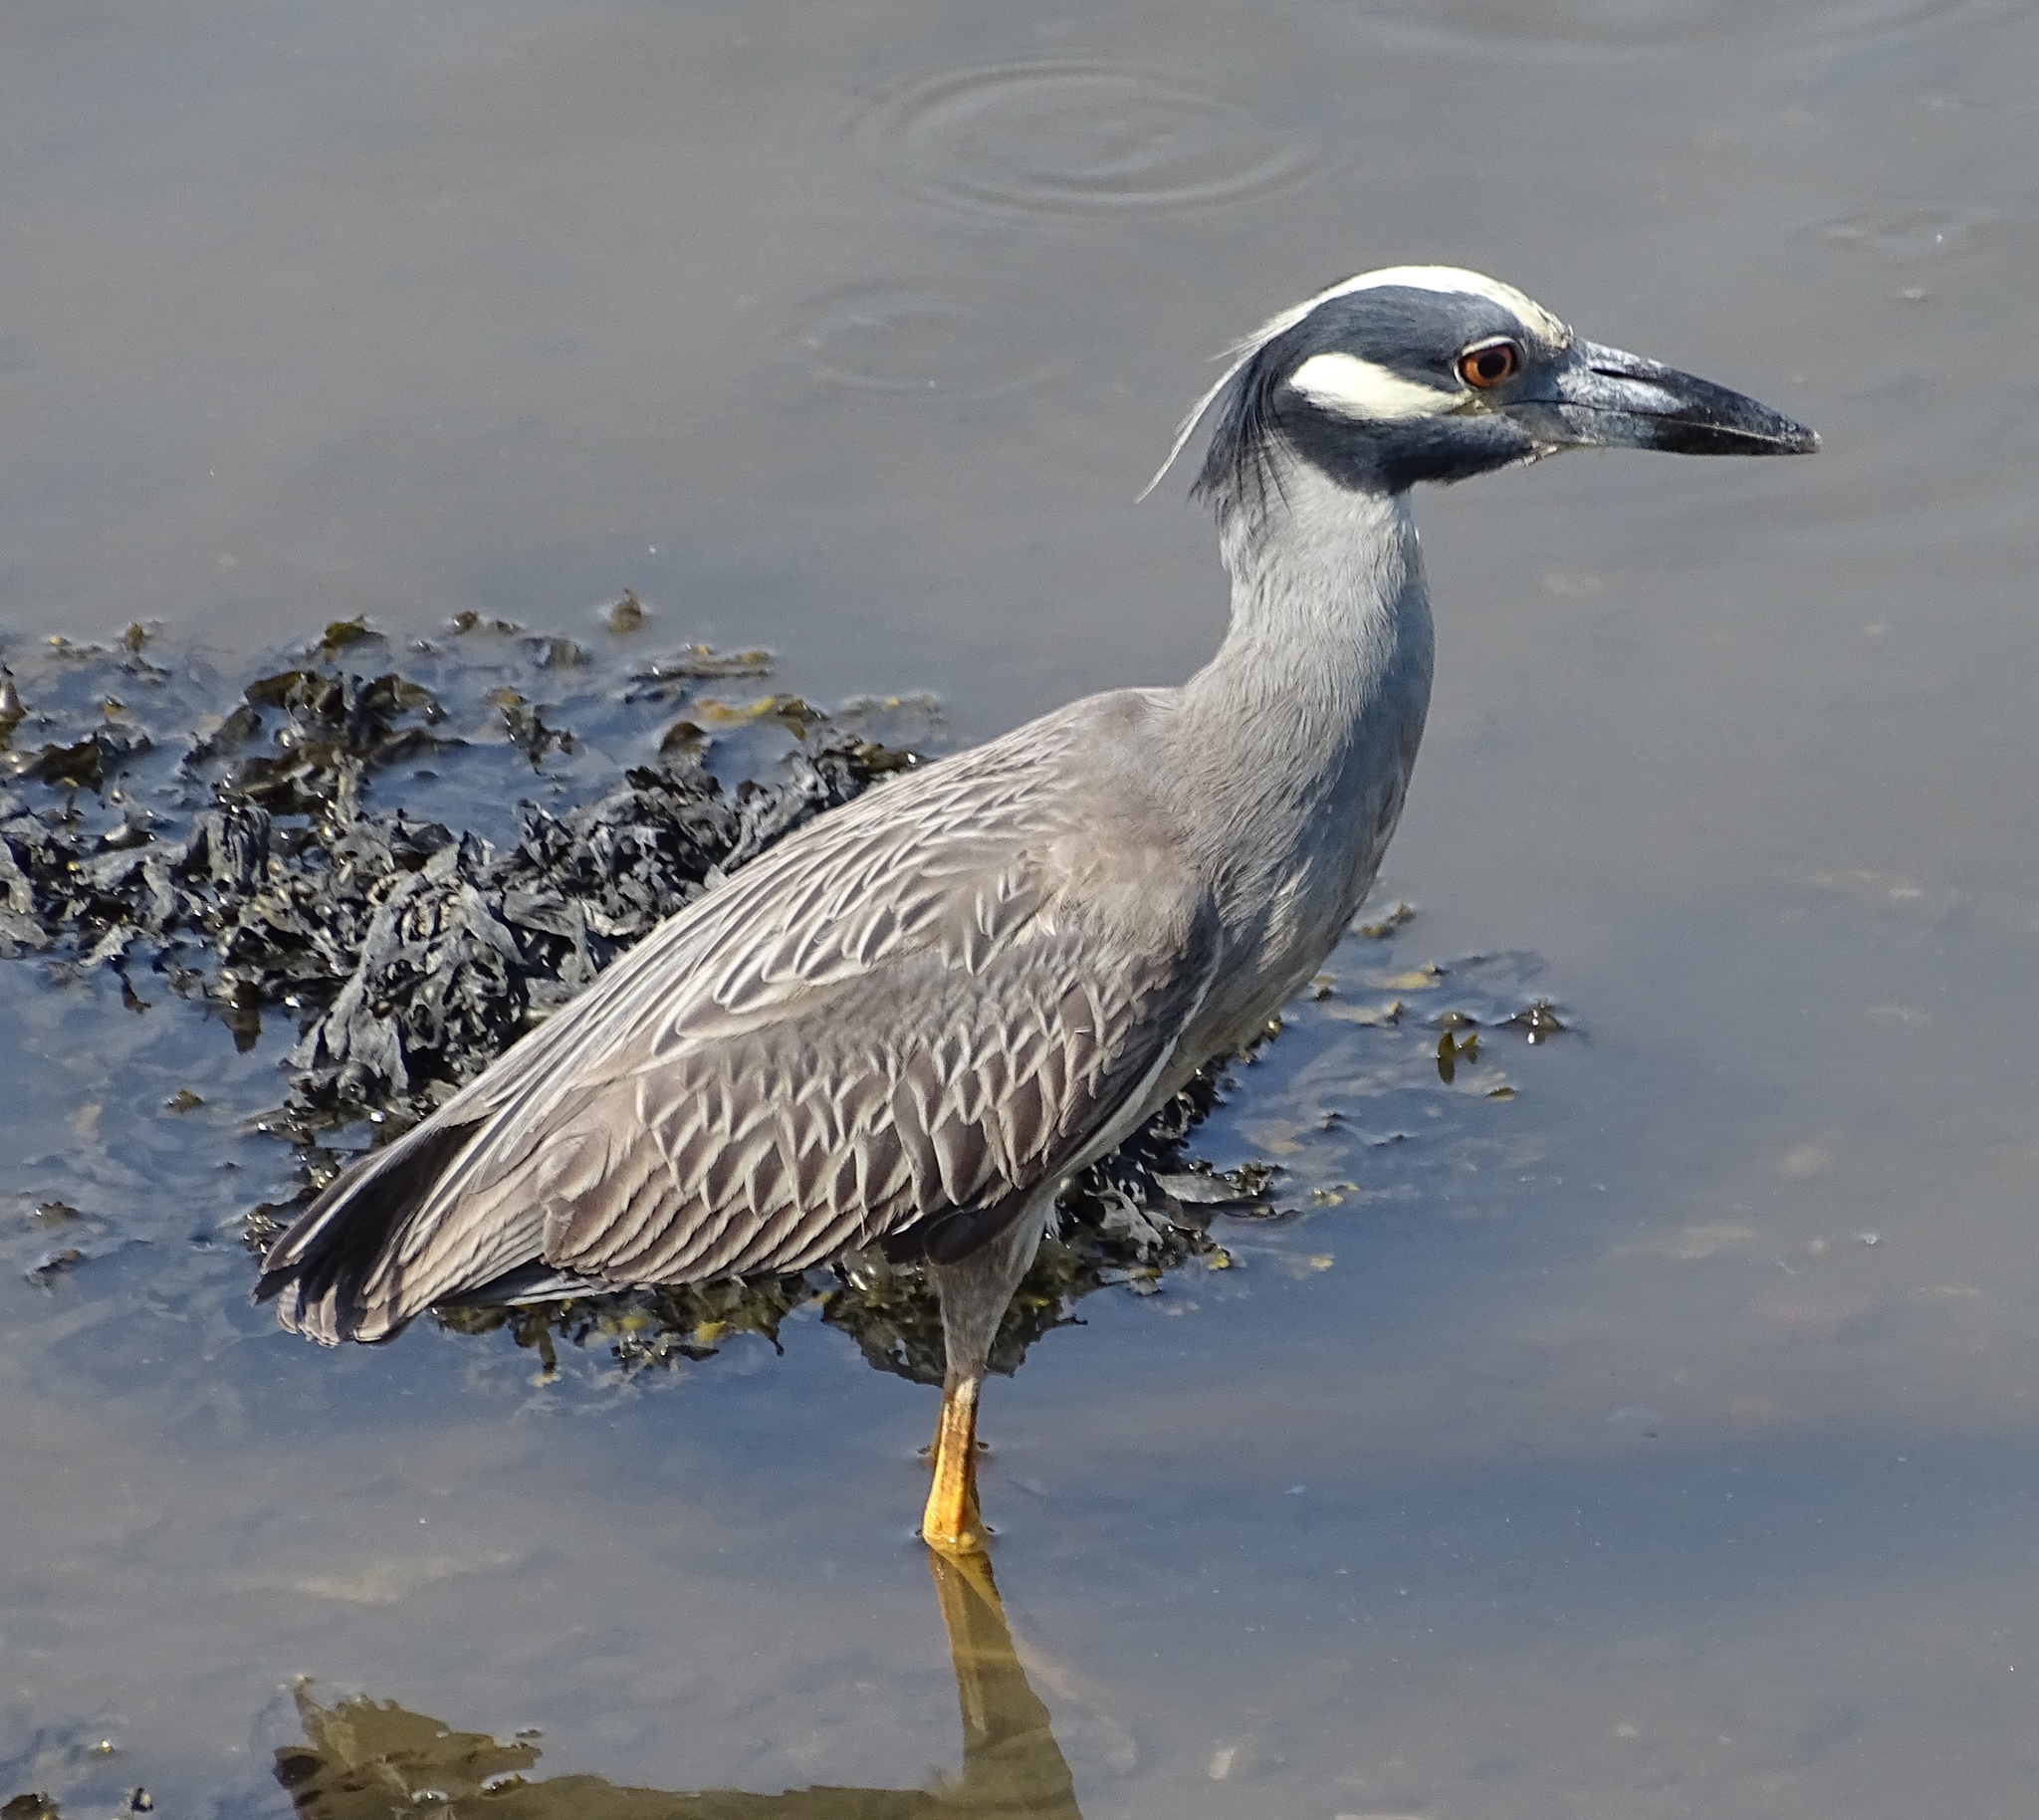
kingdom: Animalia
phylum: Chordata
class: Aves
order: Pelecaniformes
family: Ardeidae
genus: Nyctanassa
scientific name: Nyctanassa violacea
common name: Yellow-crowned night heron
